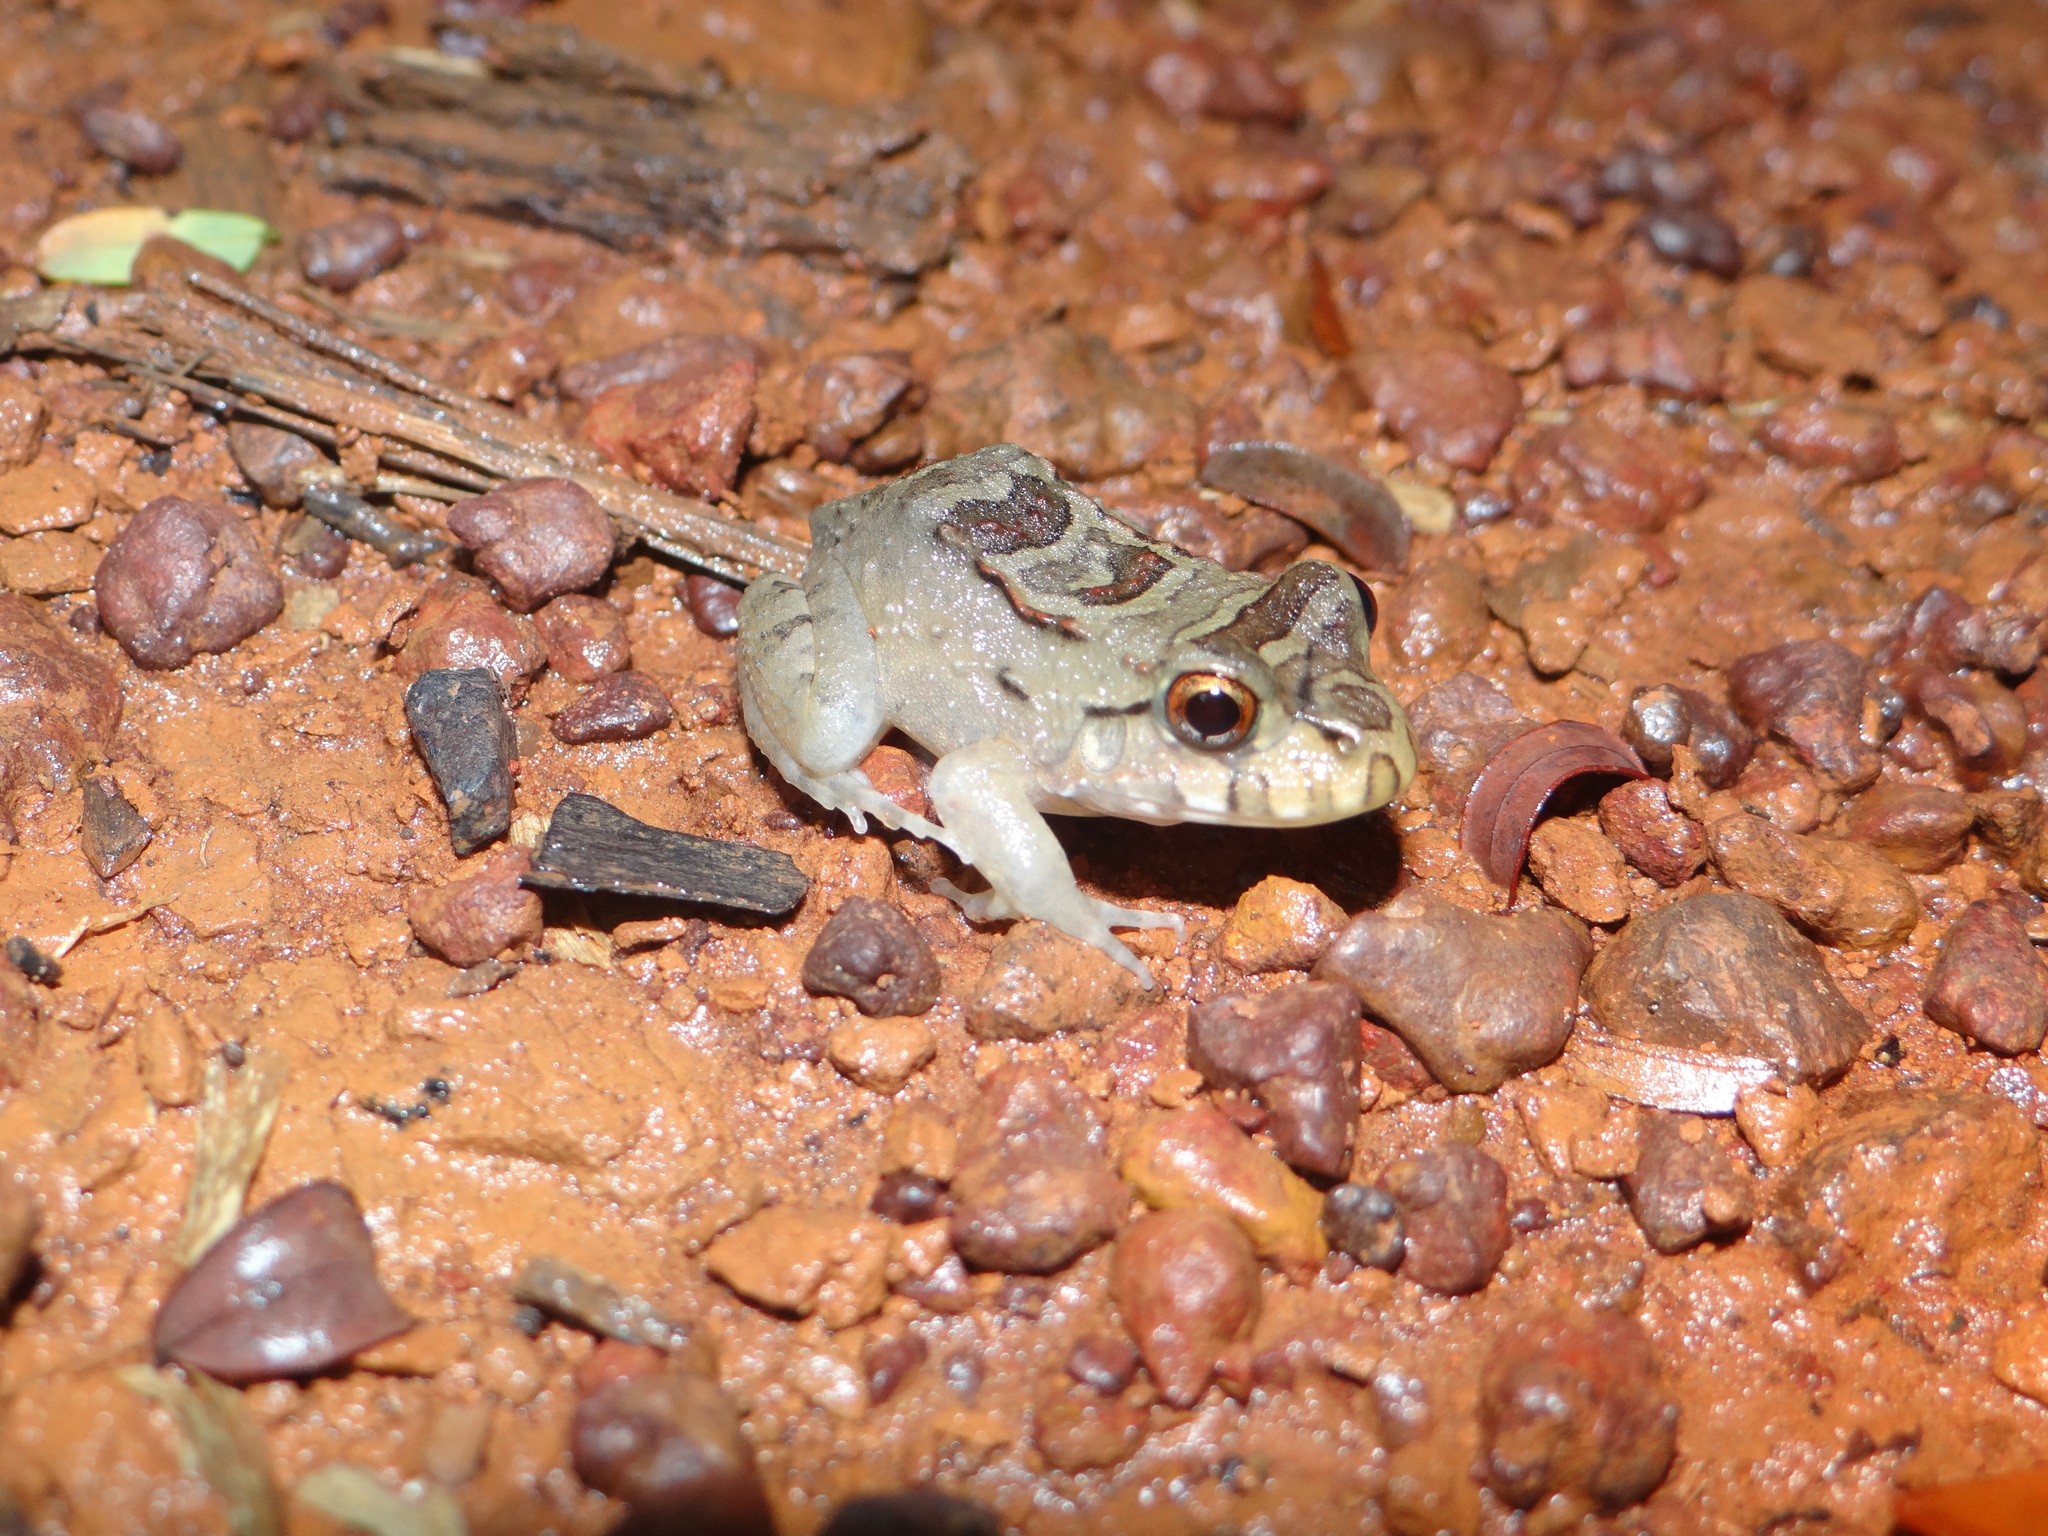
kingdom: Animalia
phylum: Chordata
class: Amphibia
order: Anura
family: Leptodactylidae
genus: Leptodactylus
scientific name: Leptodactylus knudseni
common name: Knudsen's frog
